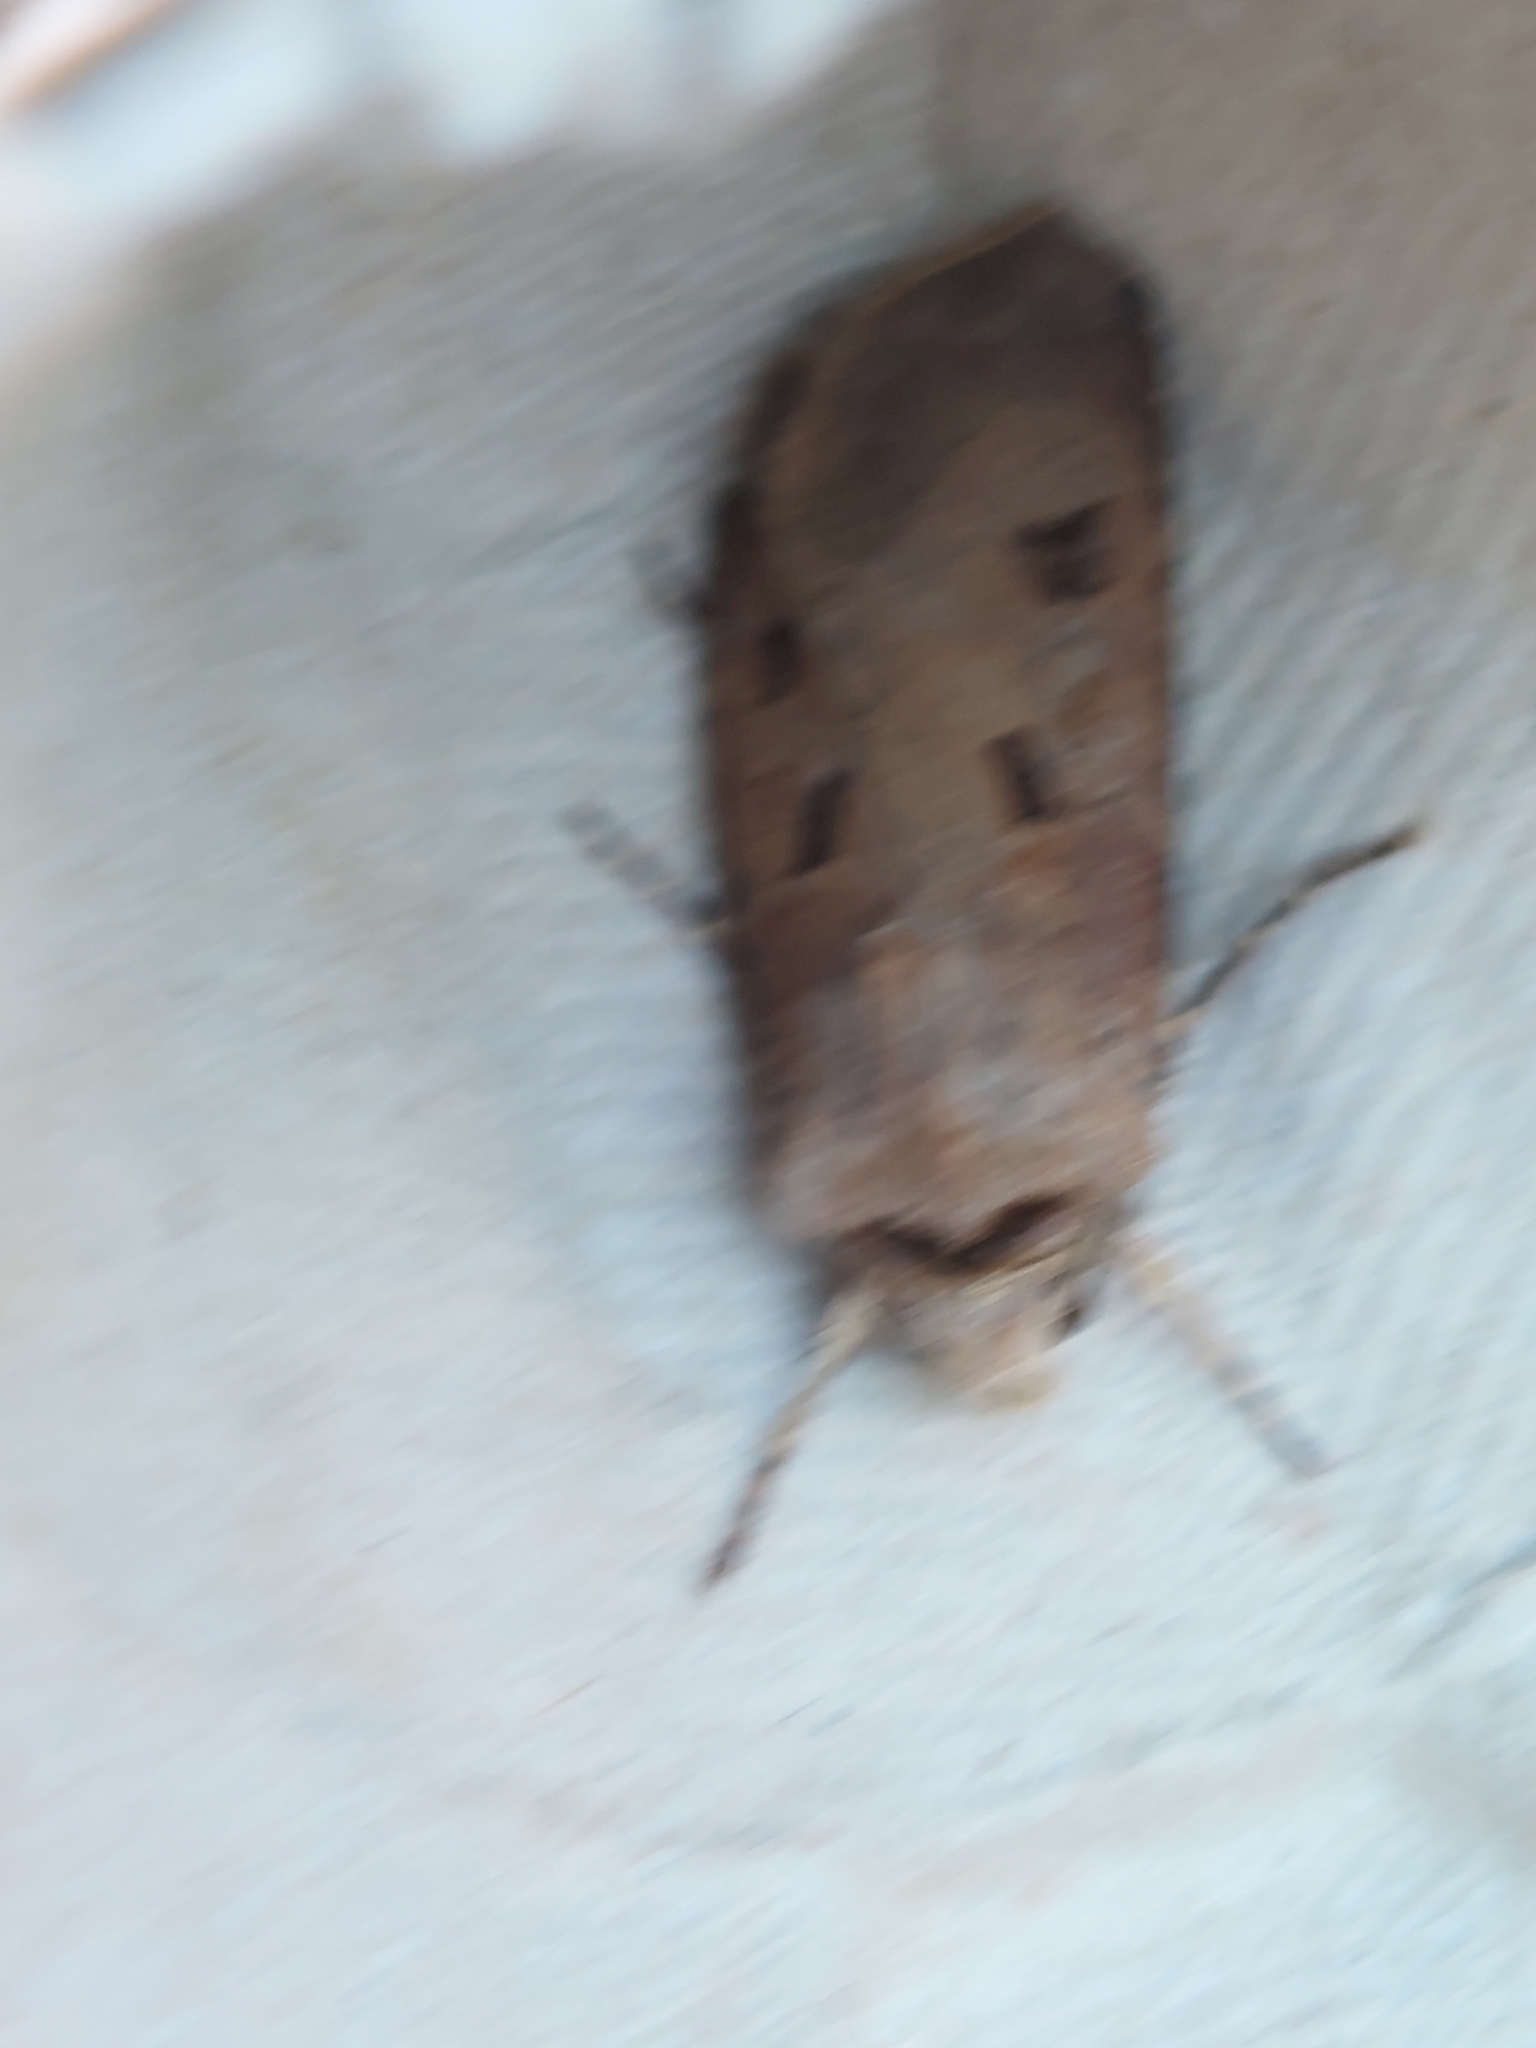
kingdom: Animalia
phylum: Arthropoda
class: Insecta
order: Lepidoptera
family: Noctuidae
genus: Agrotis
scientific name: Agrotis exclamationis
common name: Heart and dart
